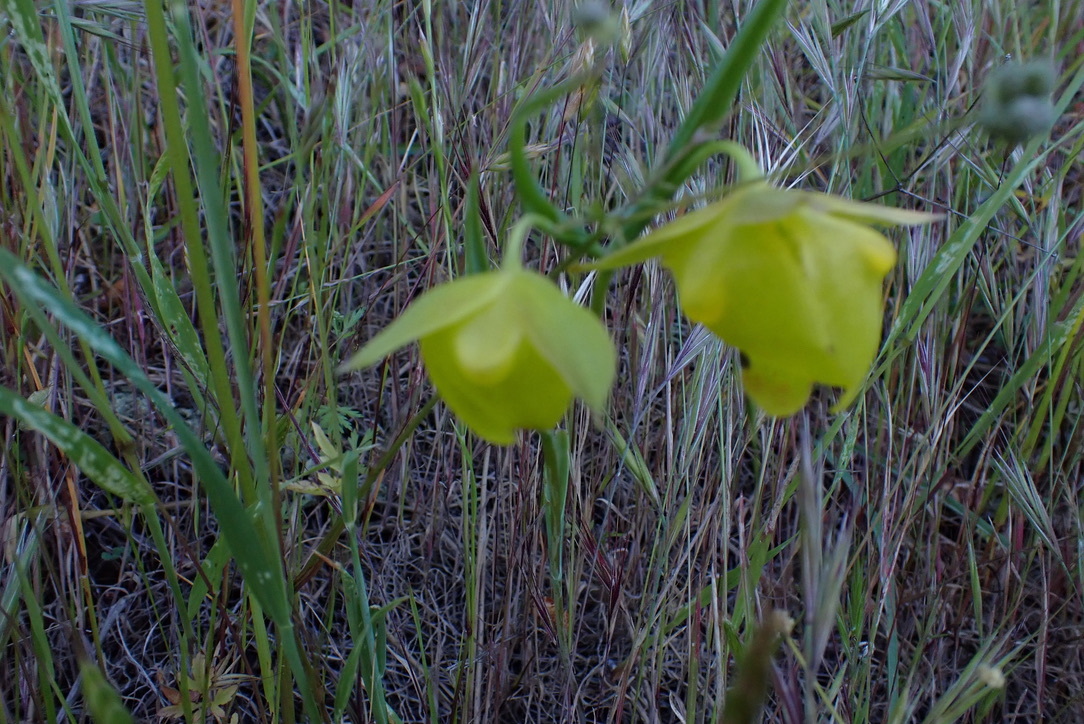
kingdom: Plantae
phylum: Tracheophyta
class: Liliopsida
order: Liliales
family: Liliaceae
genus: Calochortus
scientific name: Calochortus pulchellus
